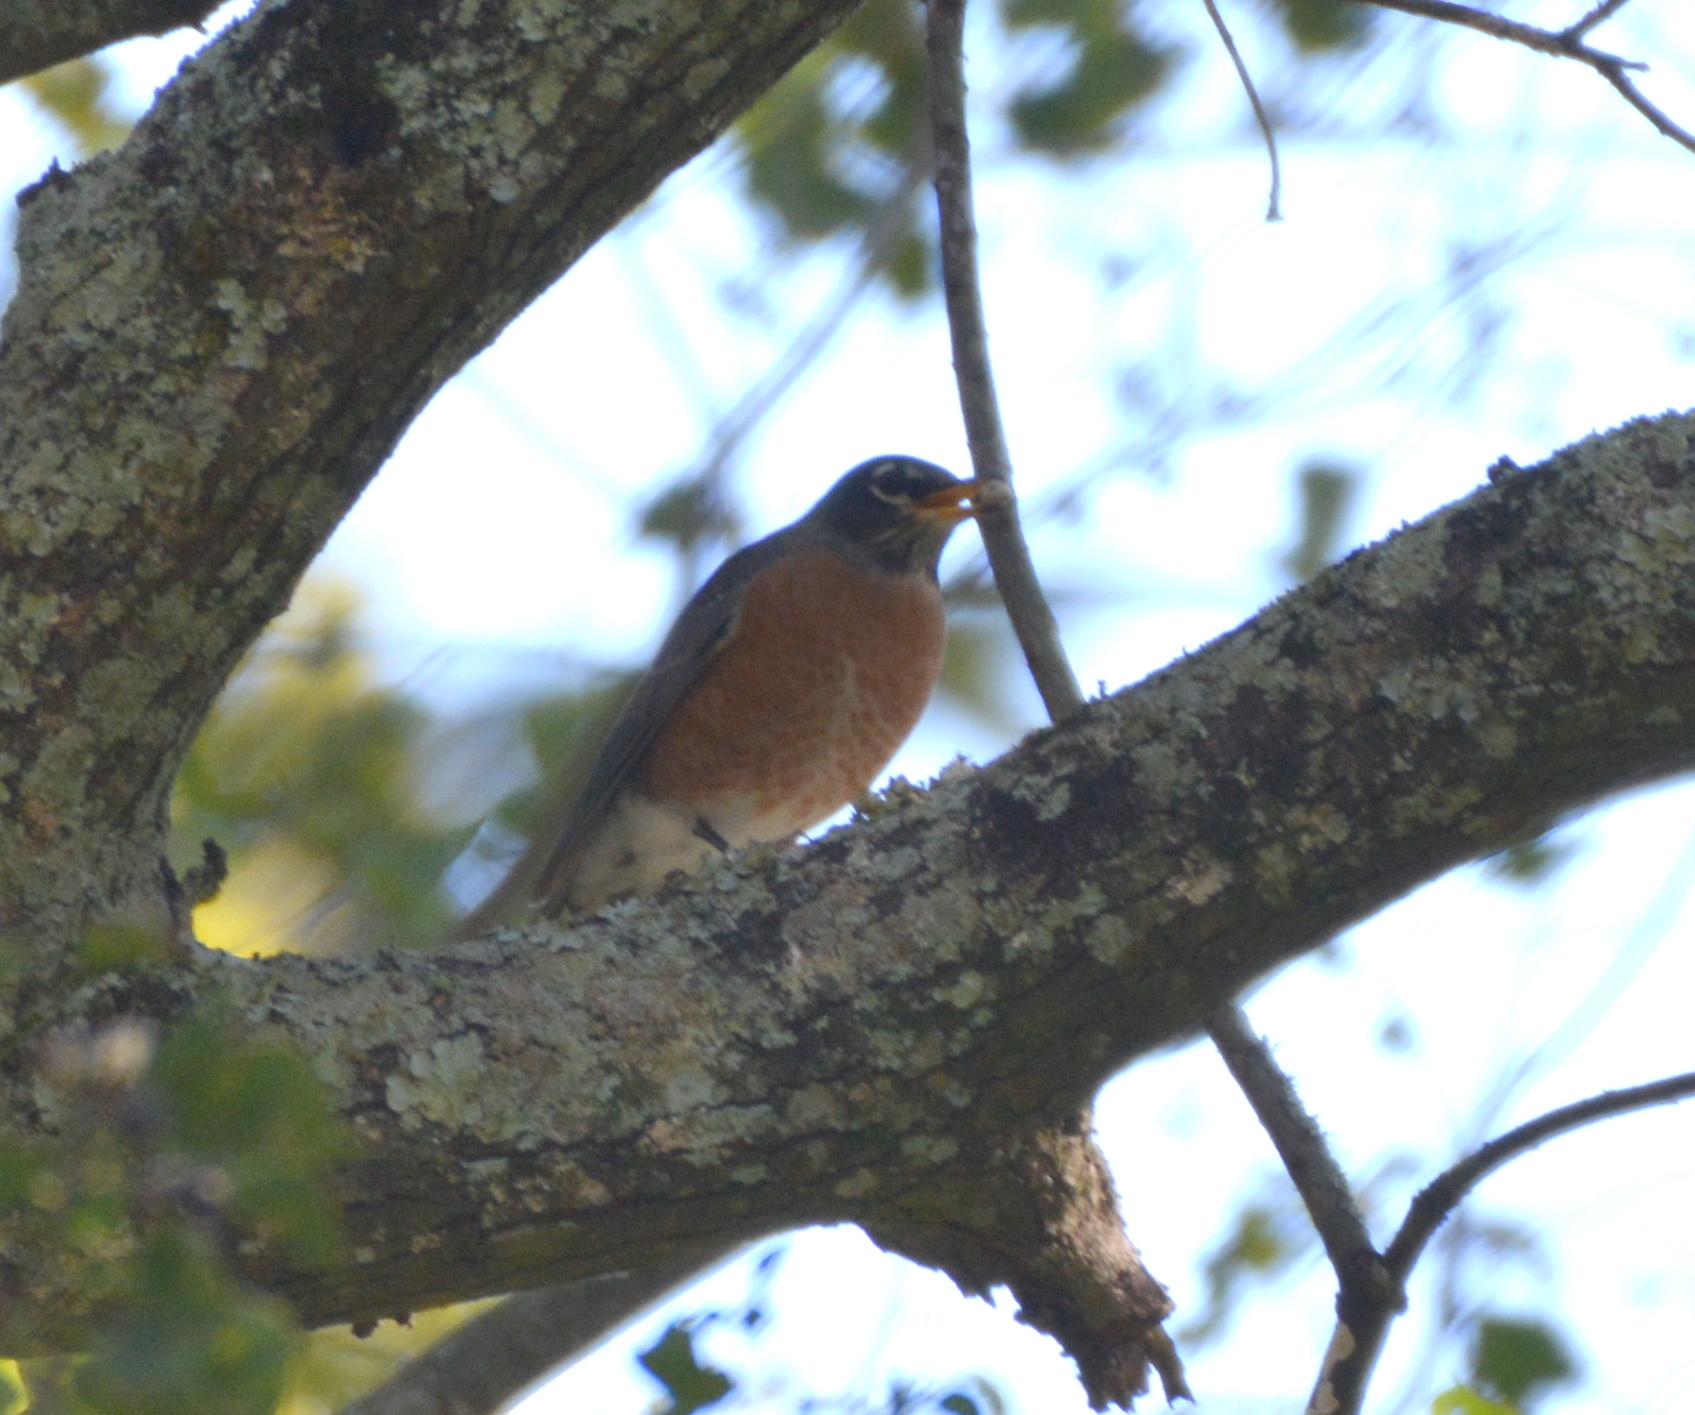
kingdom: Animalia
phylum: Chordata
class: Aves
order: Passeriformes
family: Turdidae
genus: Turdus
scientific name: Turdus migratorius
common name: American robin
